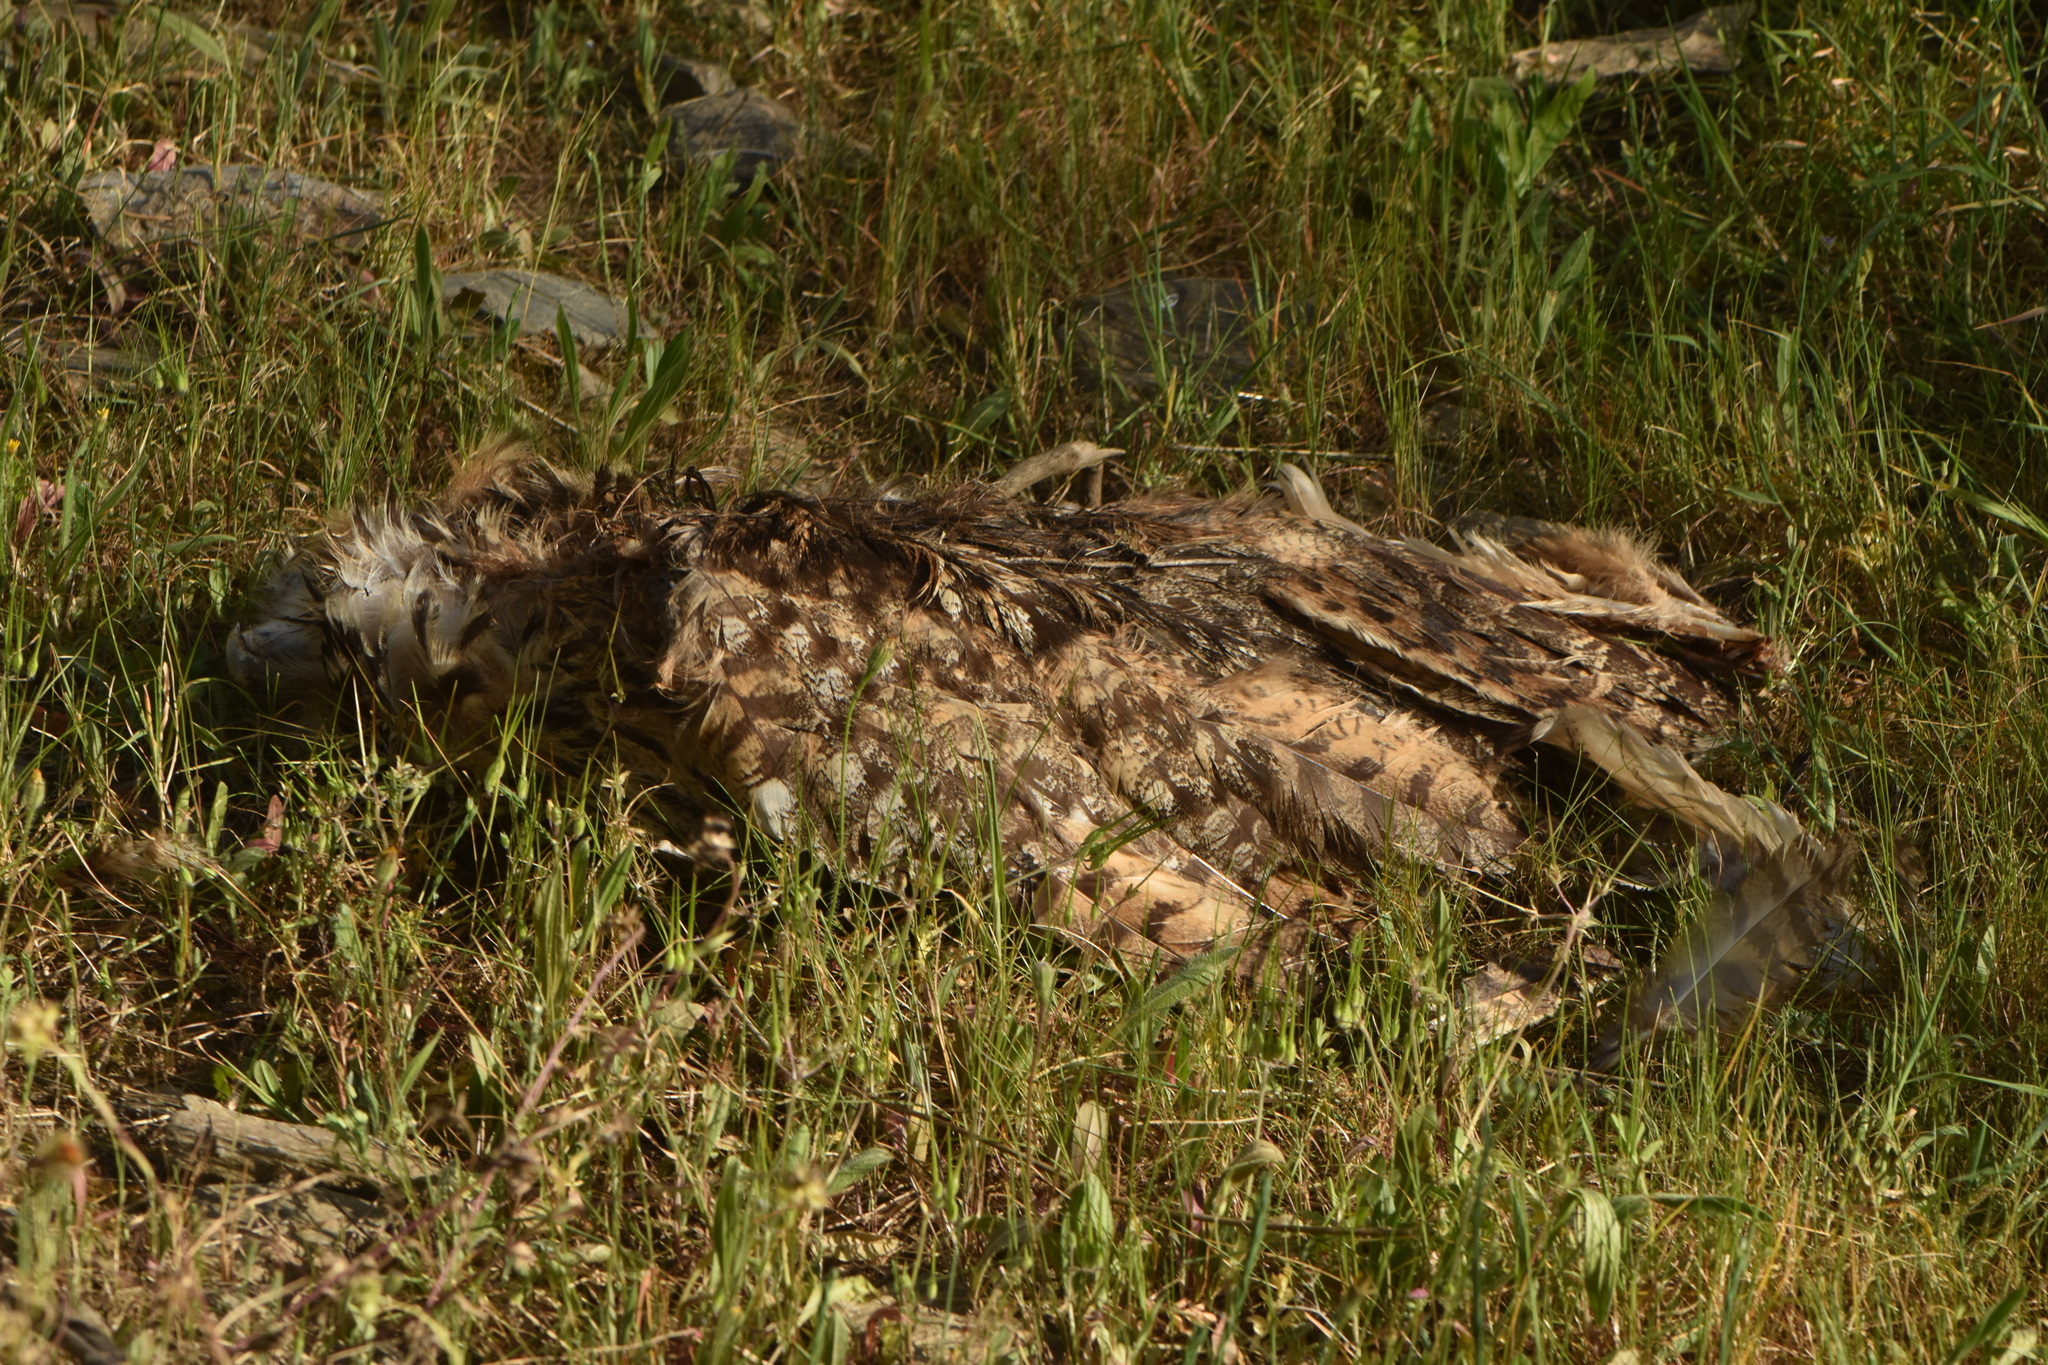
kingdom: Animalia
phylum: Chordata
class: Aves
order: Strigiformes
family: Strigidae
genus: Bubo
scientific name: Bubo bubo
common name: Eurasian eagle-owl
